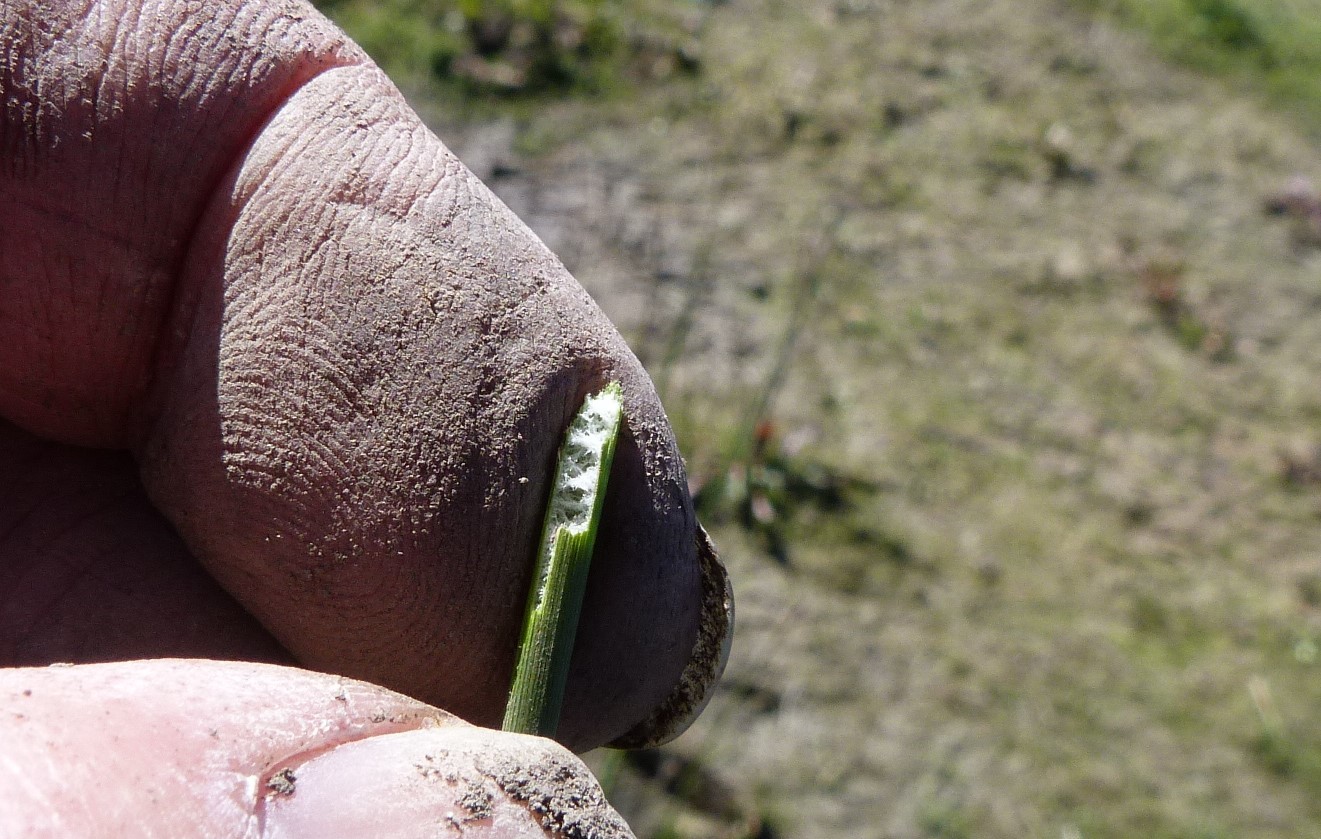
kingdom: Plantae
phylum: Tracheophyta
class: Liliopsida
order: Poales
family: Juncaceae
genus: Juncus
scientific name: Juncus sarophorus
